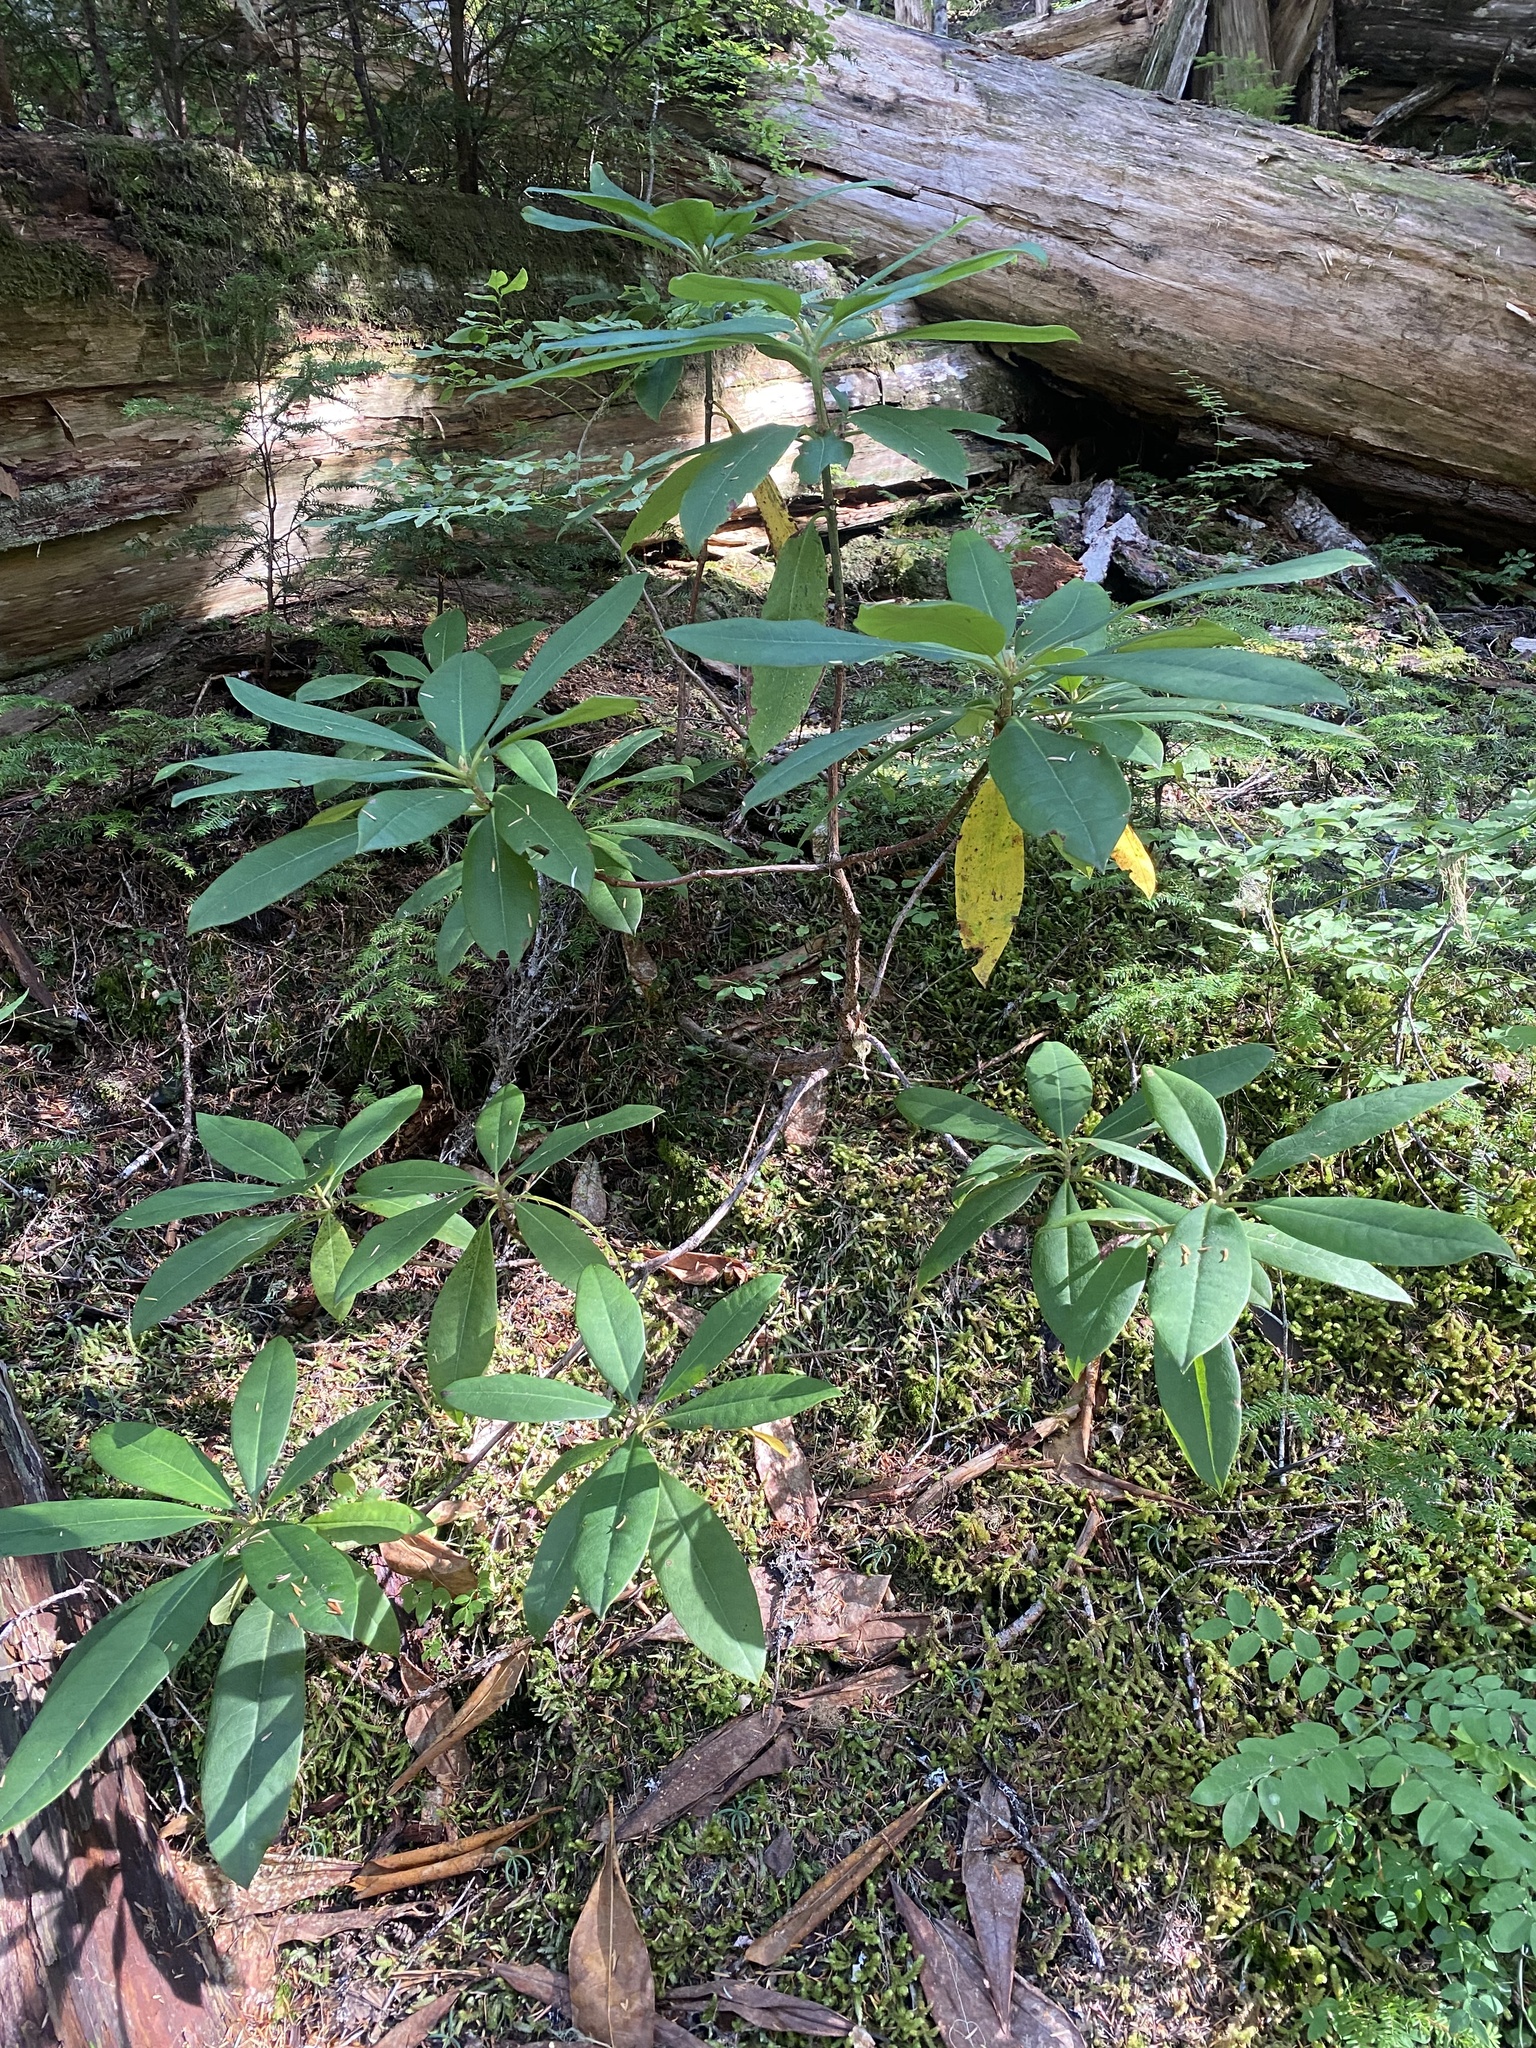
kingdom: Plantae
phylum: Tracheophyta
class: Magnoliopsida
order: Ericales
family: Ericaceae
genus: Rhododendron
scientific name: Rhododendron macrophyllum
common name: California rose bay
